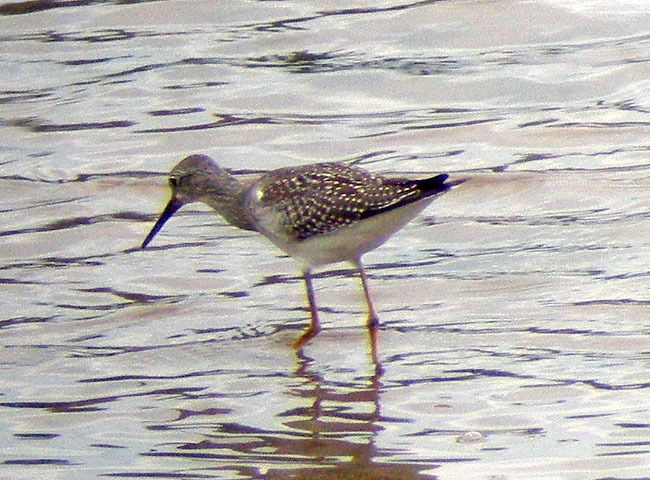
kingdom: Animalia
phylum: Chordata
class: Aves
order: Charadriiformes
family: Scolopacidae
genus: Tringa
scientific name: Tringa flavipes
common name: Lesser yellowlegs
